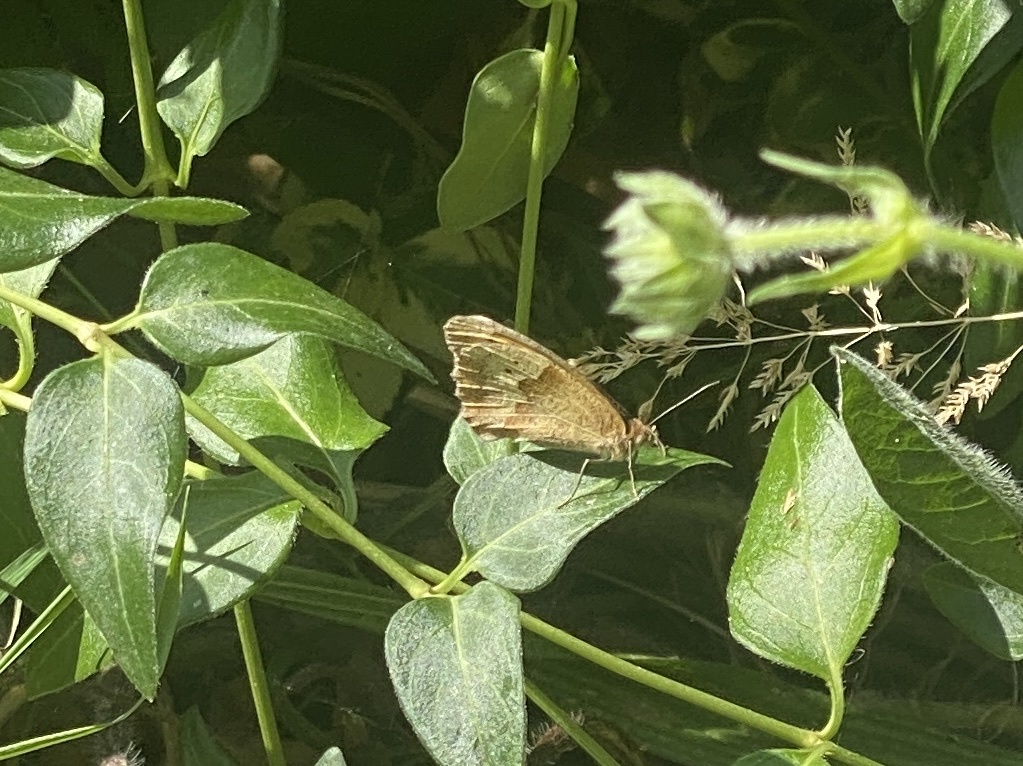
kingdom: Animalia
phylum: Arthropoda
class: Insecta
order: Lepidoptera
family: Nymphalidae
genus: Maniola
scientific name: Maniola jurtina
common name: Meadow brown
